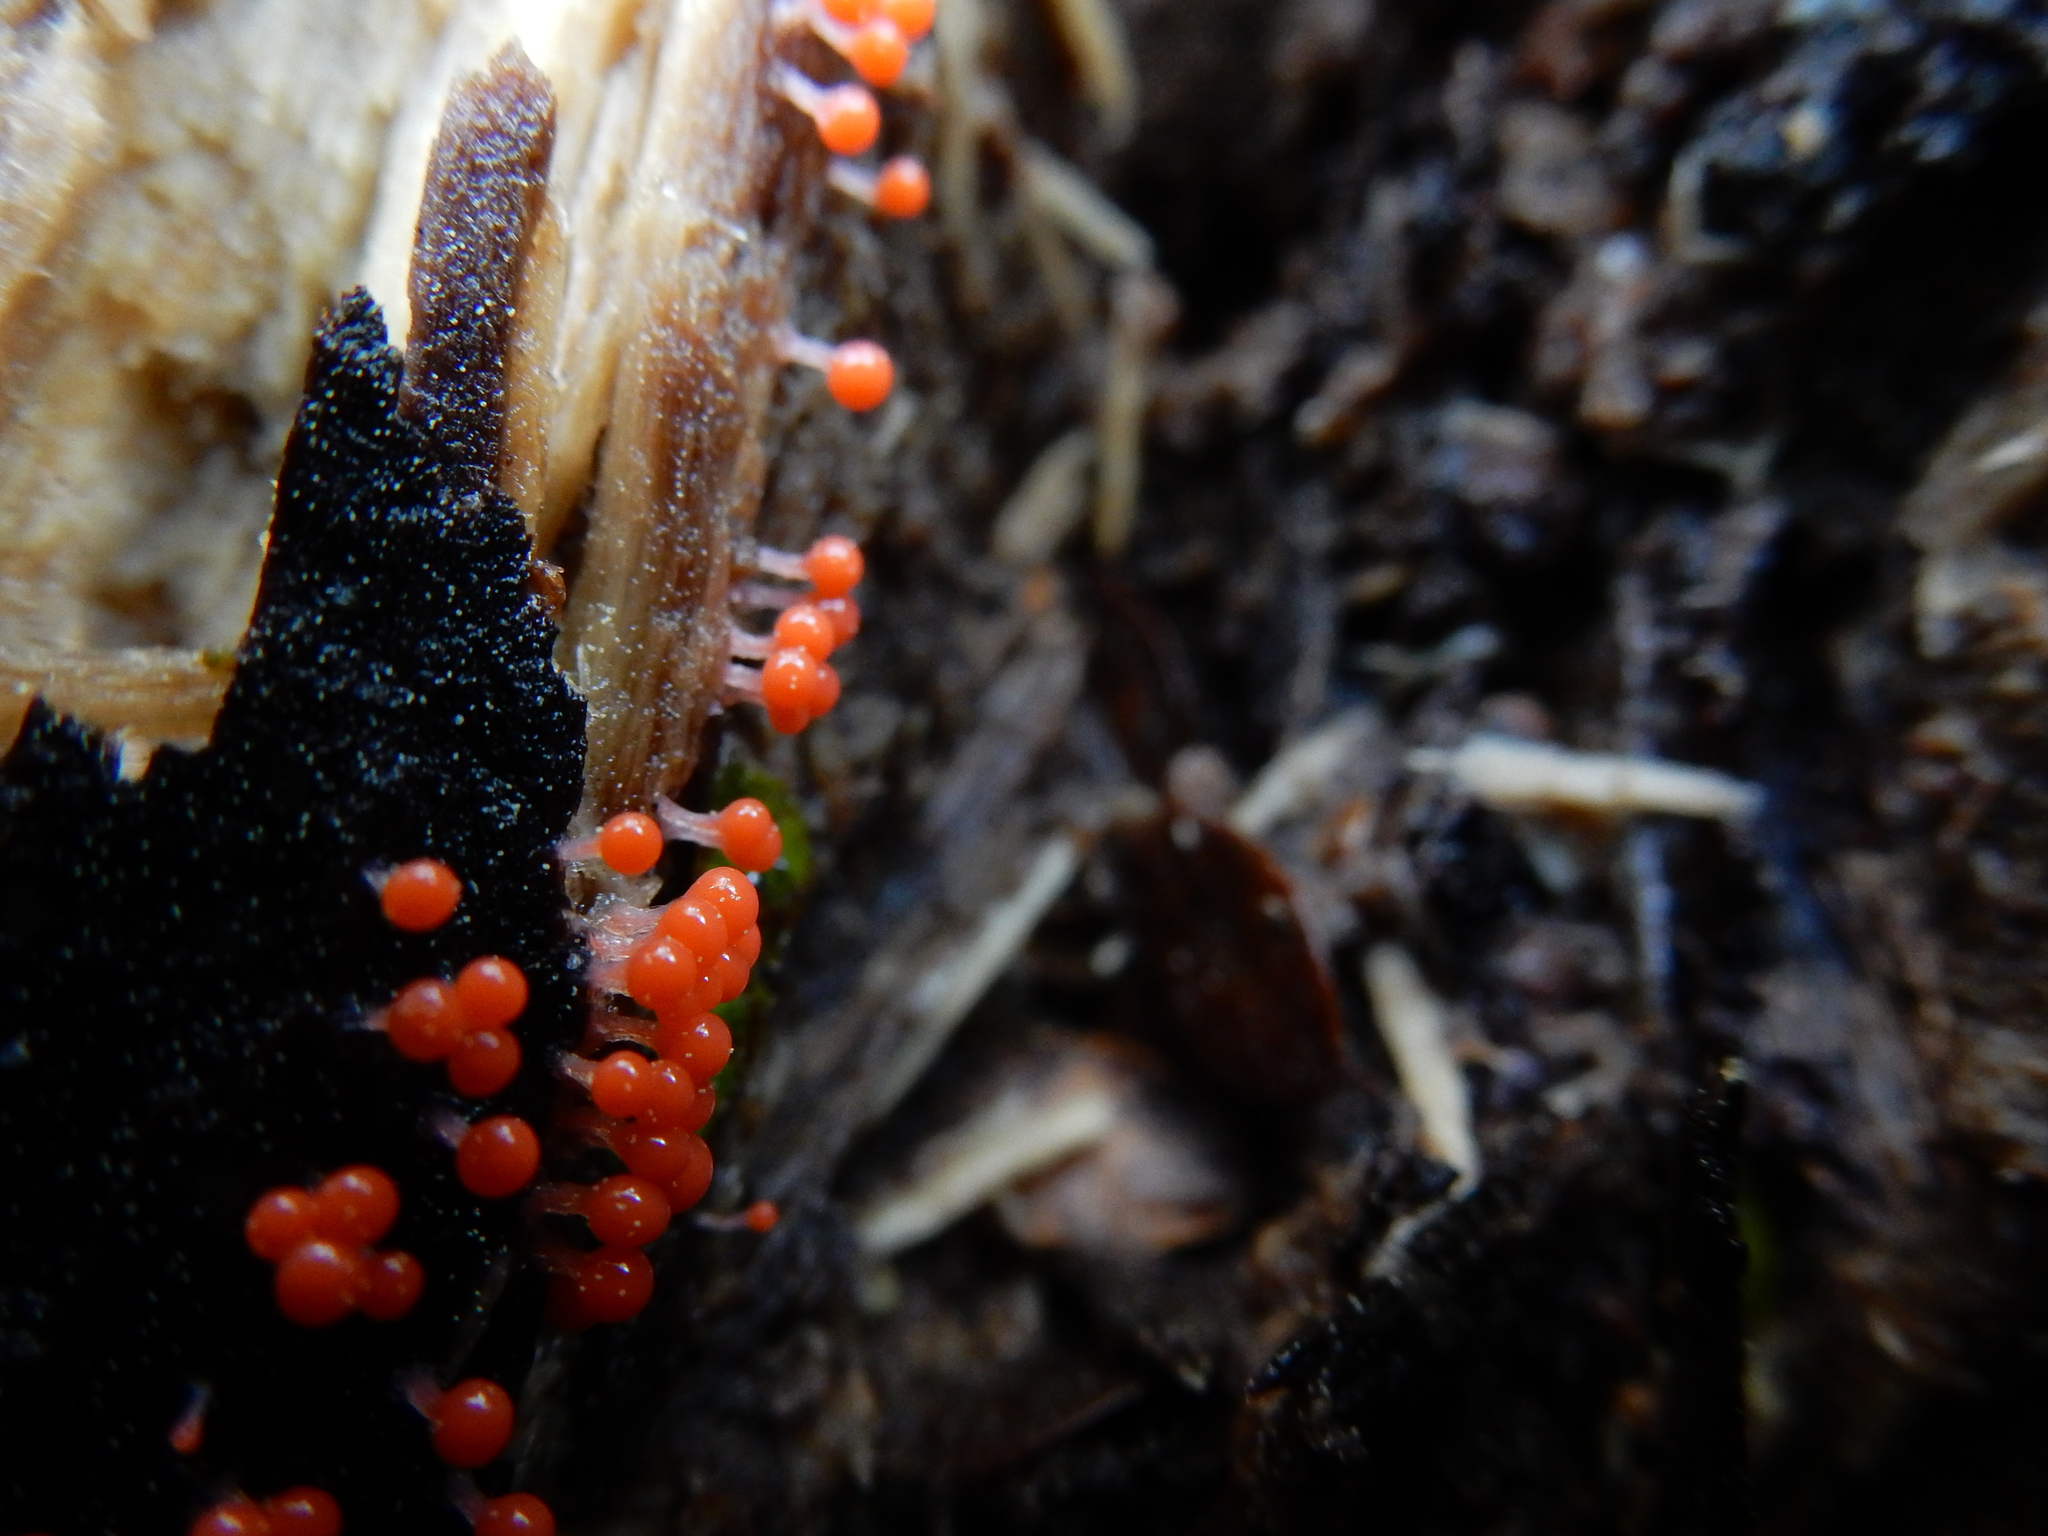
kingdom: Protozoa
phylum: Mycetozoa
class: Myxomycetes
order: Trichiales
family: Arcyriaceae
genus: Hemitrichia
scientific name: Hemitrichia decipiens
